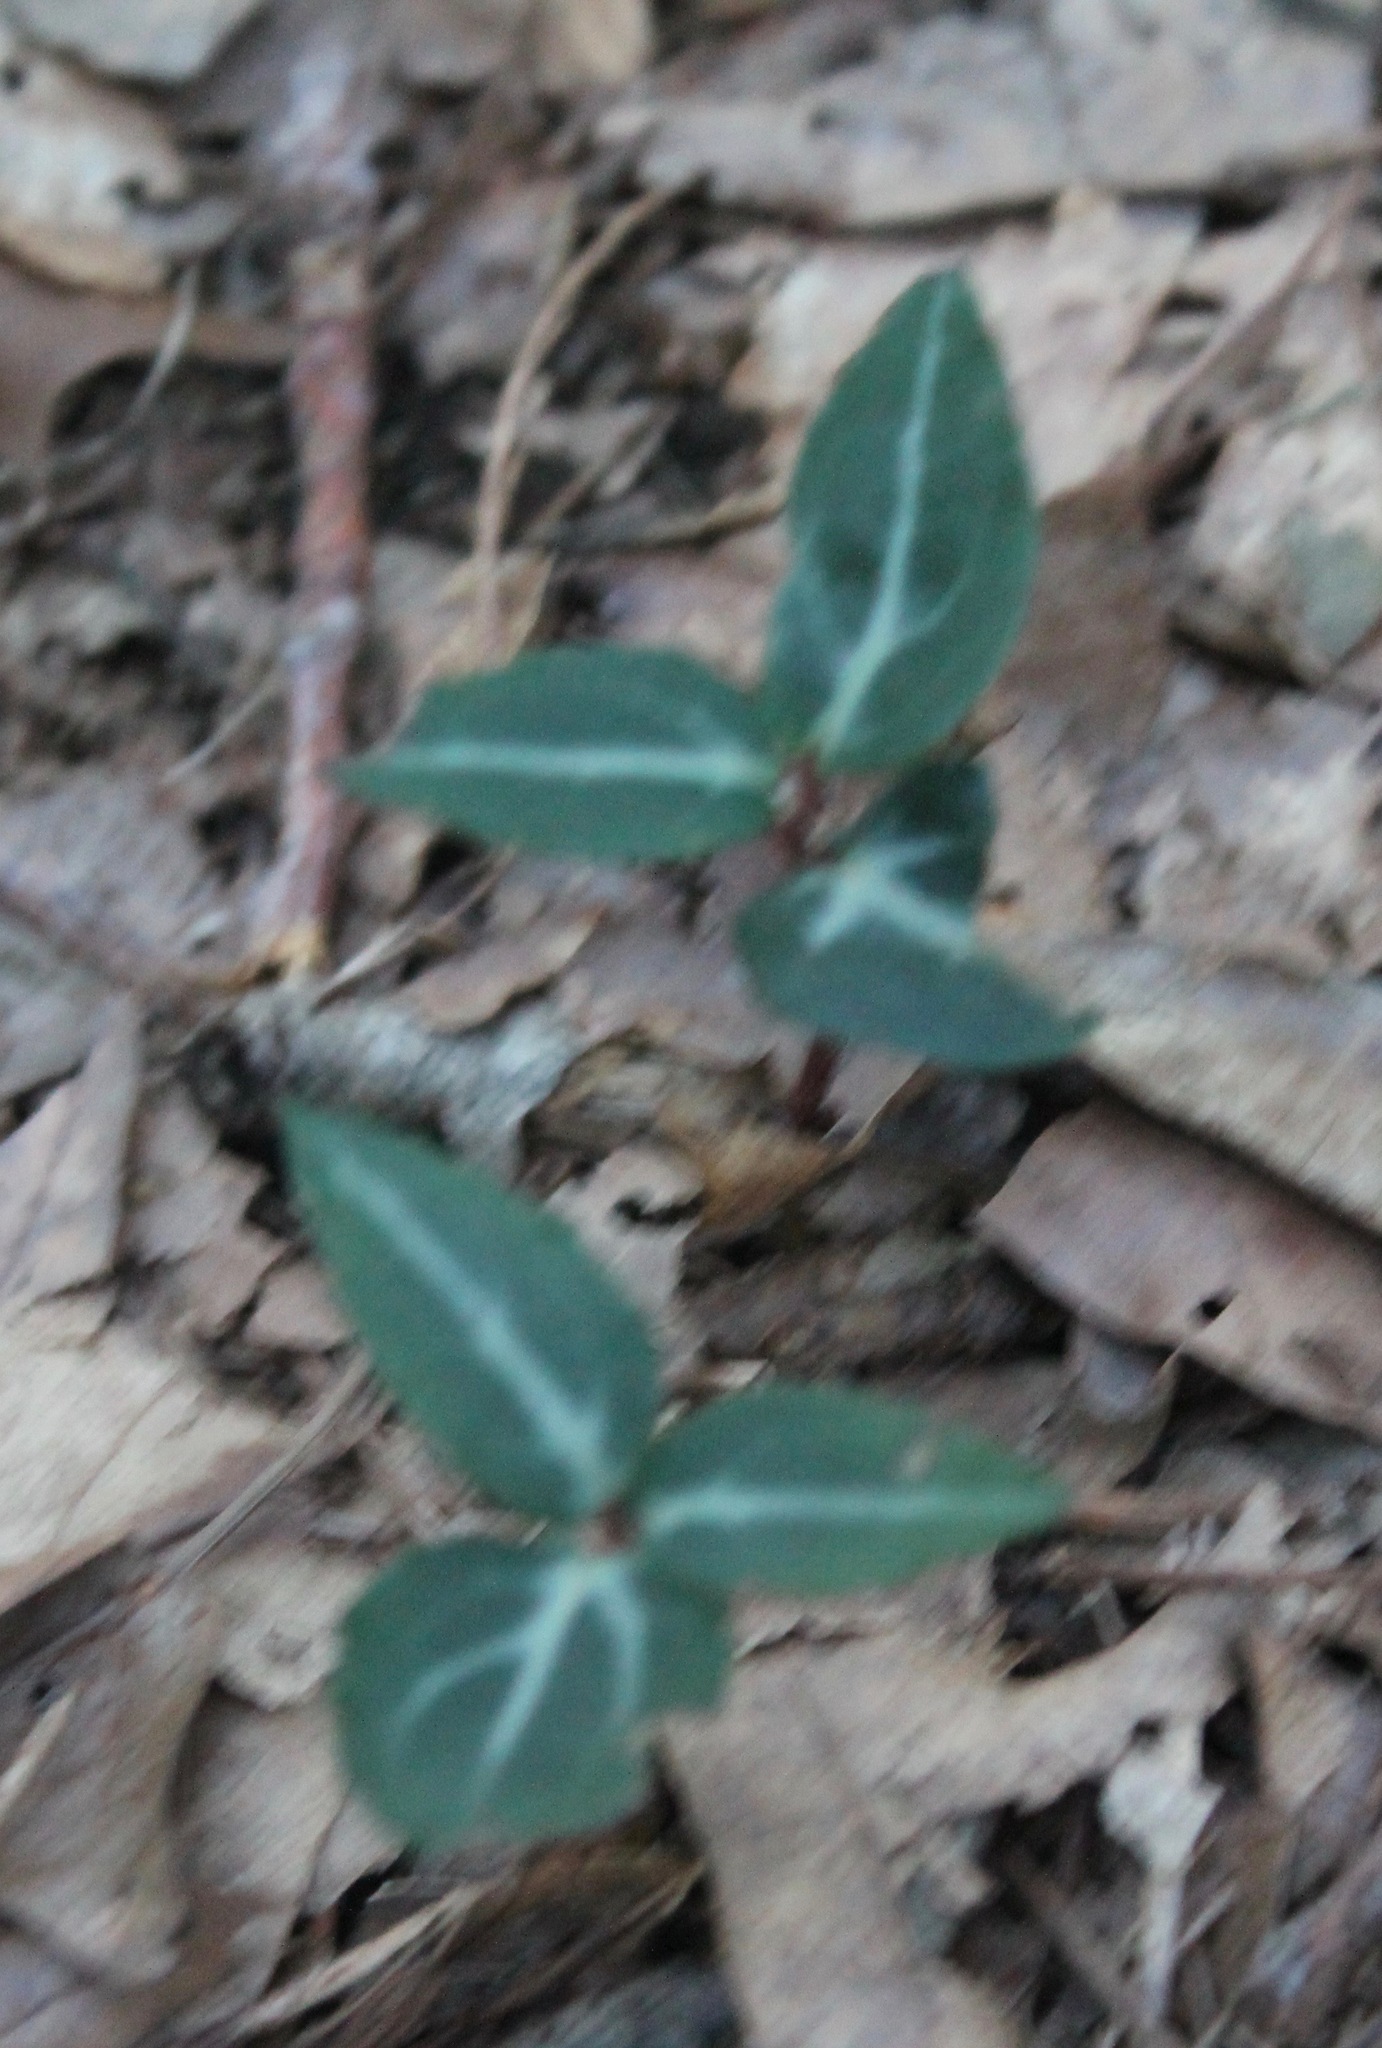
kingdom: Plantae
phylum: Tracheophyta
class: Magnoliopsida
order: Ericales
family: Ericaceae
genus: Chimaphila
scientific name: Chimaphila maculata
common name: Spotted pipsissewa
